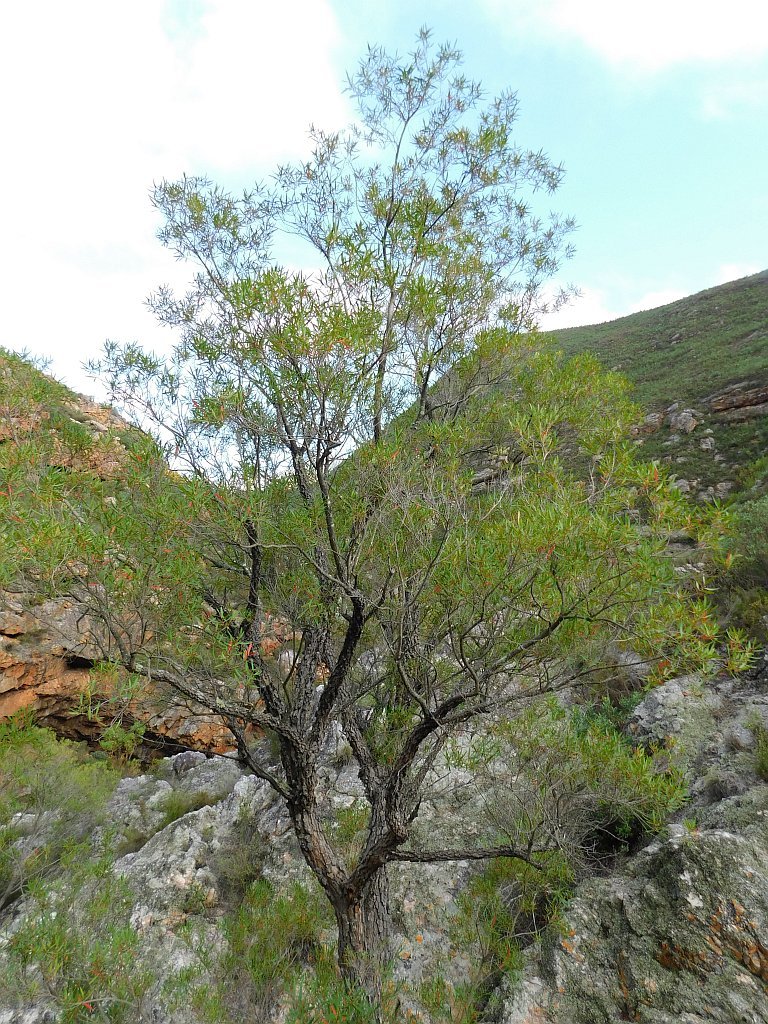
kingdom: Plantae
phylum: Tracheophyta
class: Magnoliopsida
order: Lamiales
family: Oleaceae
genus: Olea
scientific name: Olea europaea
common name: Olive
